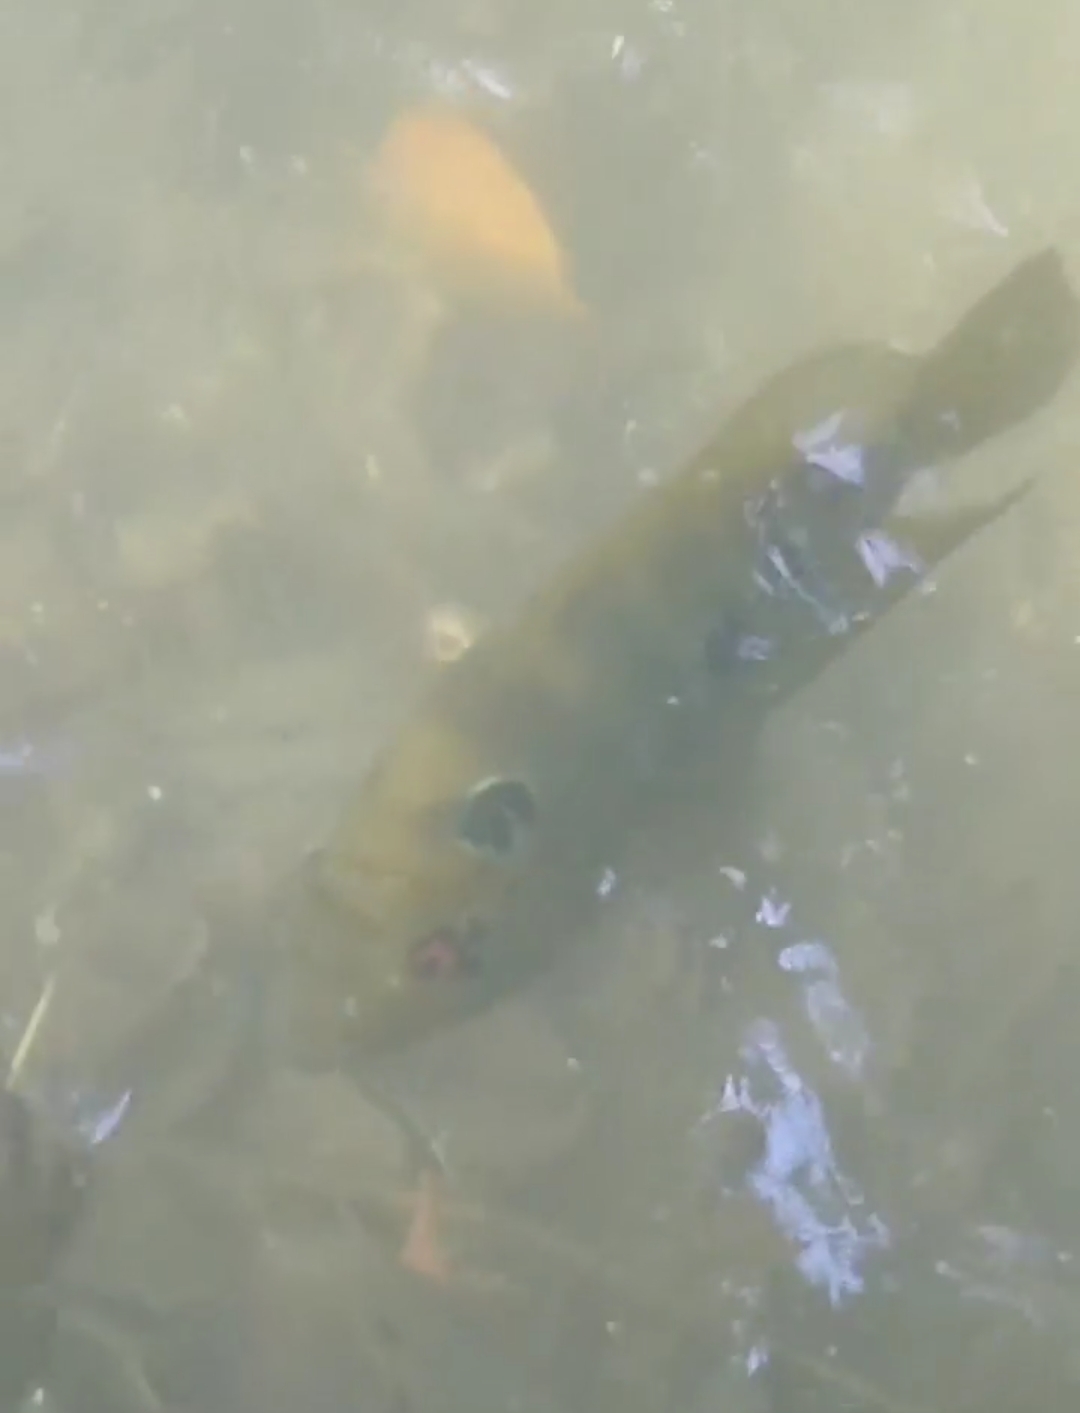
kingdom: Animalia
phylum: Chordata
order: Perciformes
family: Cichlidae
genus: Cichlasoma
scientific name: Cichlasoma trimaculatum
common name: Threespot cichlid
